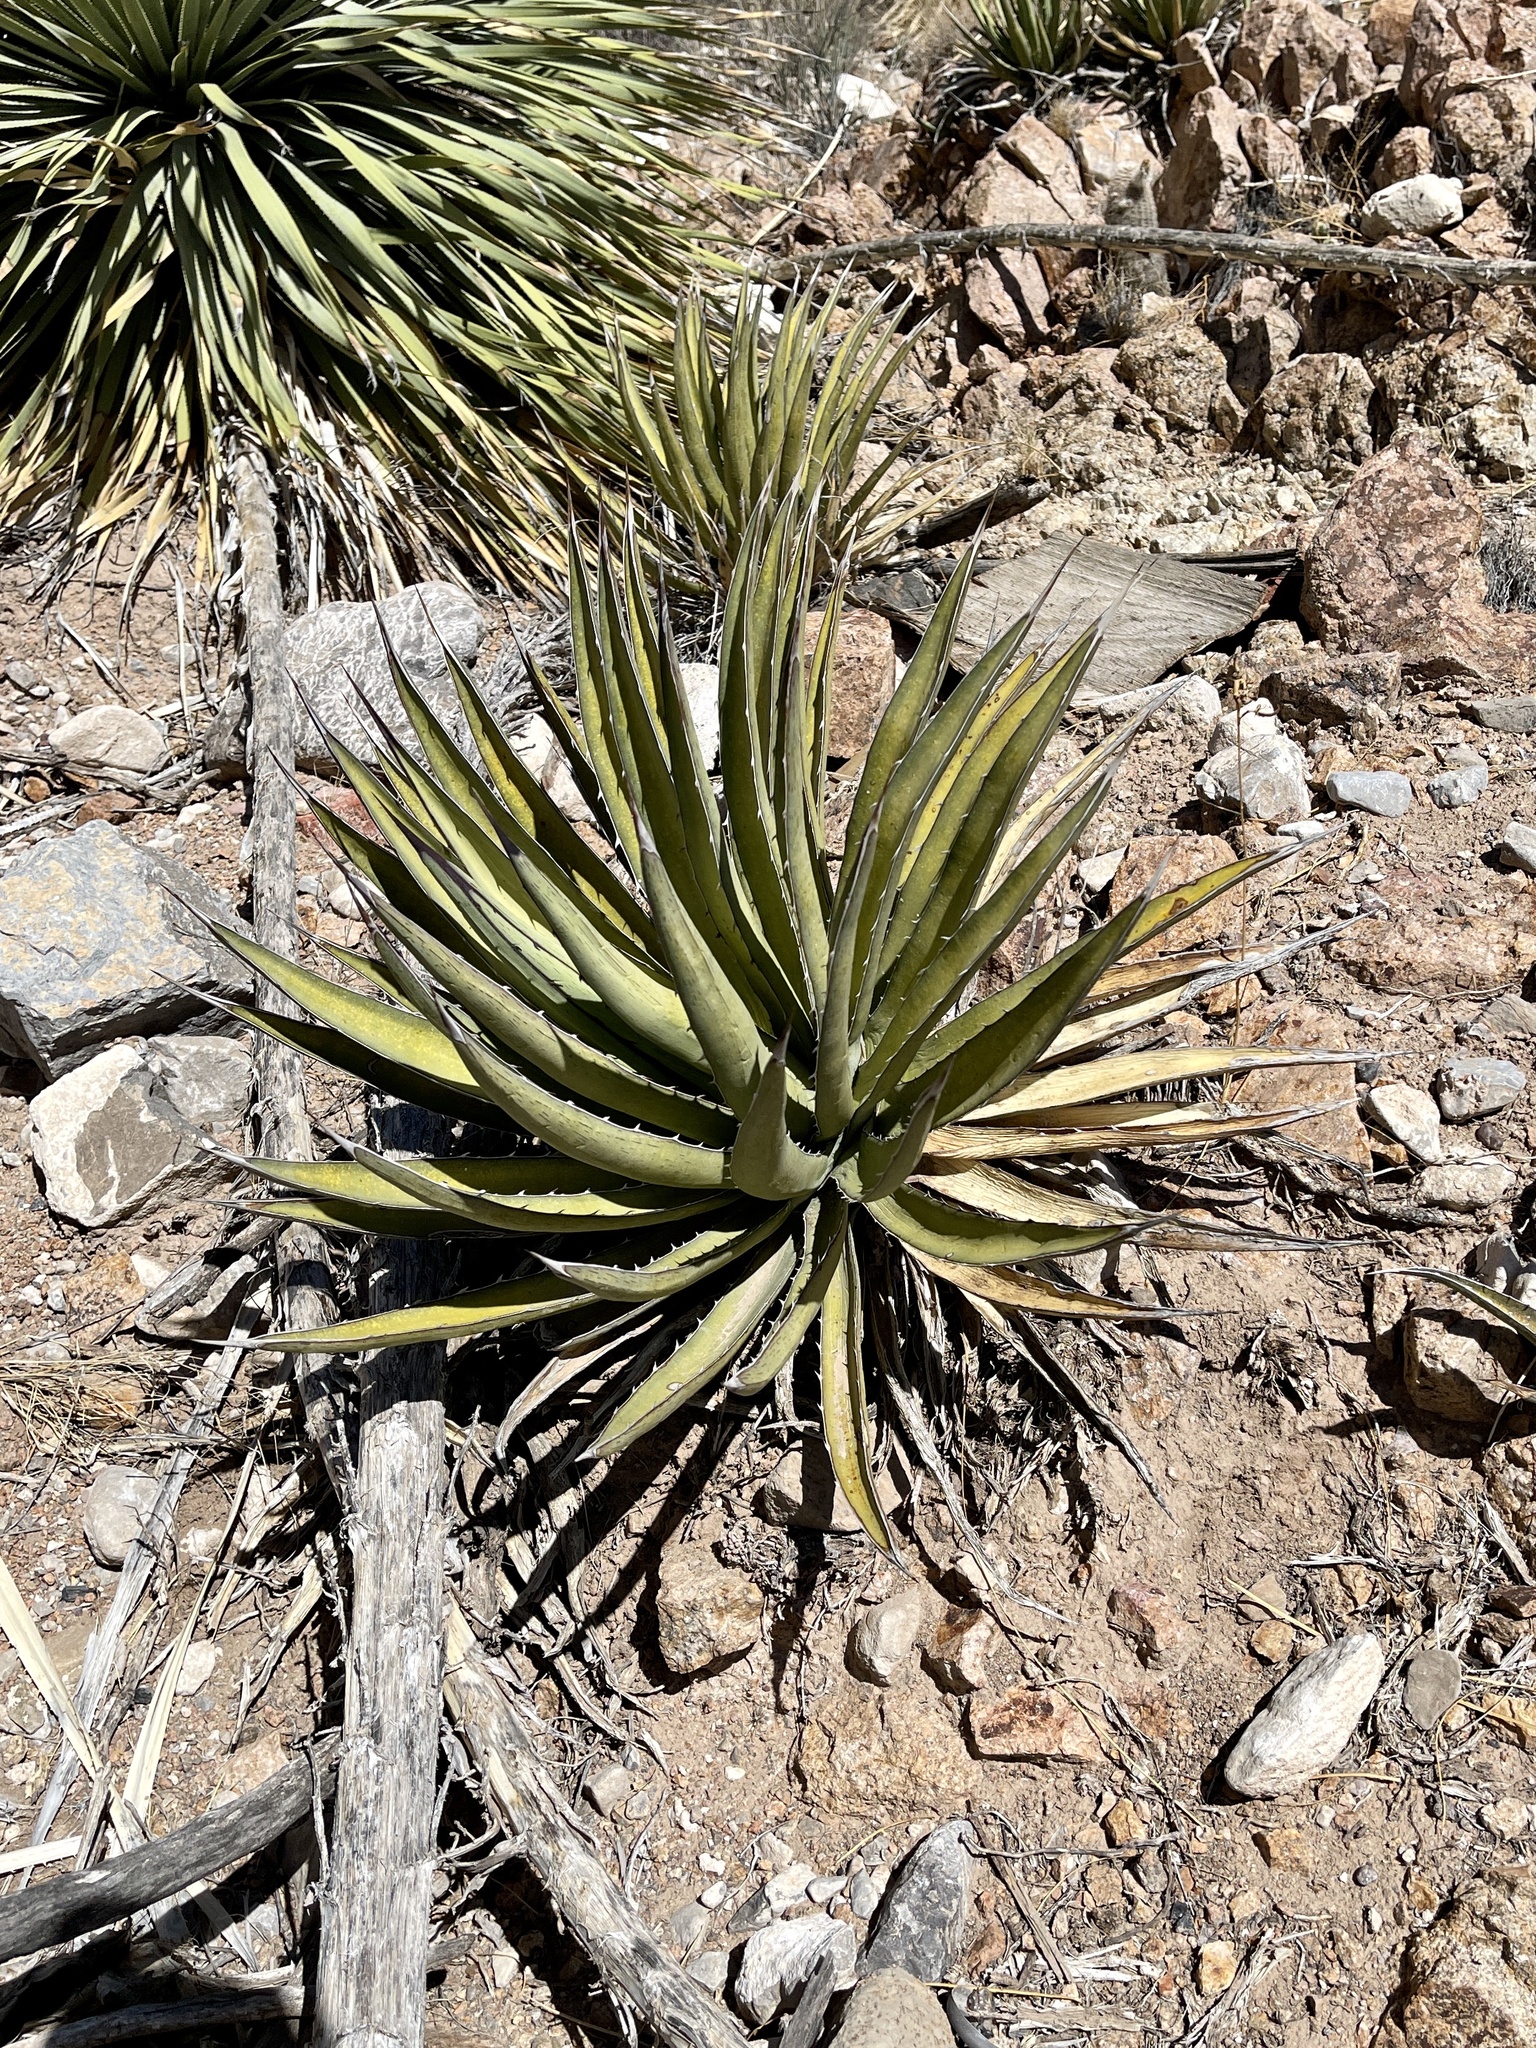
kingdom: Plantae
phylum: Tracheophyta
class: Liliopsida
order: Asparagales
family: Asparagaceae
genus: Agave
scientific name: Agave lechuguilla
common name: Lecheguilla agave
